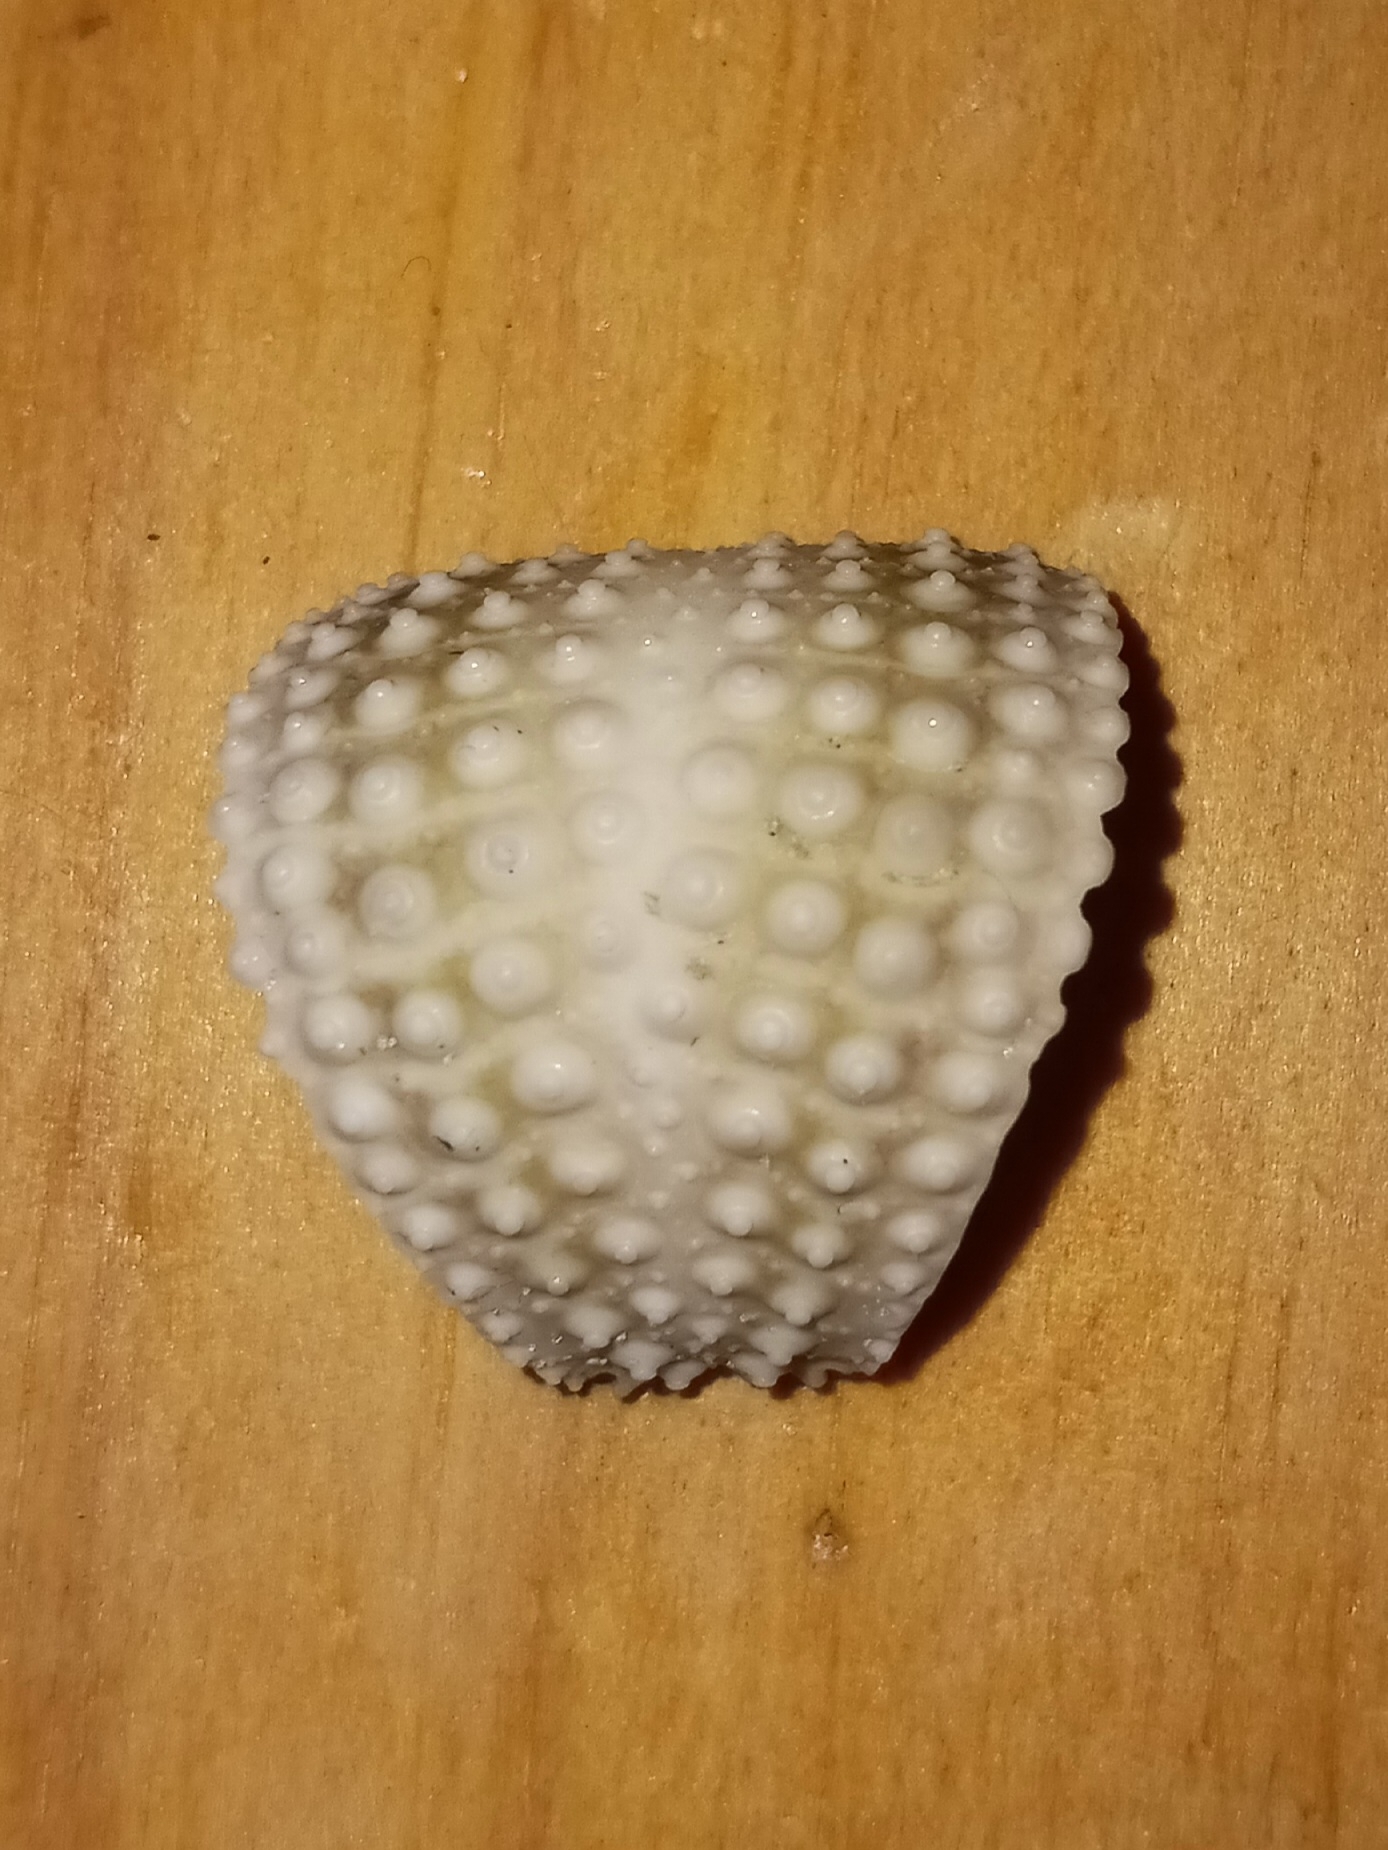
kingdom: Animalia
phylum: Echinodermata
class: Echinoidea
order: Arbacioida
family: Arbaciidae
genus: Arbacia
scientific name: Arbacia punctulata
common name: Purple-spined sea urchin
